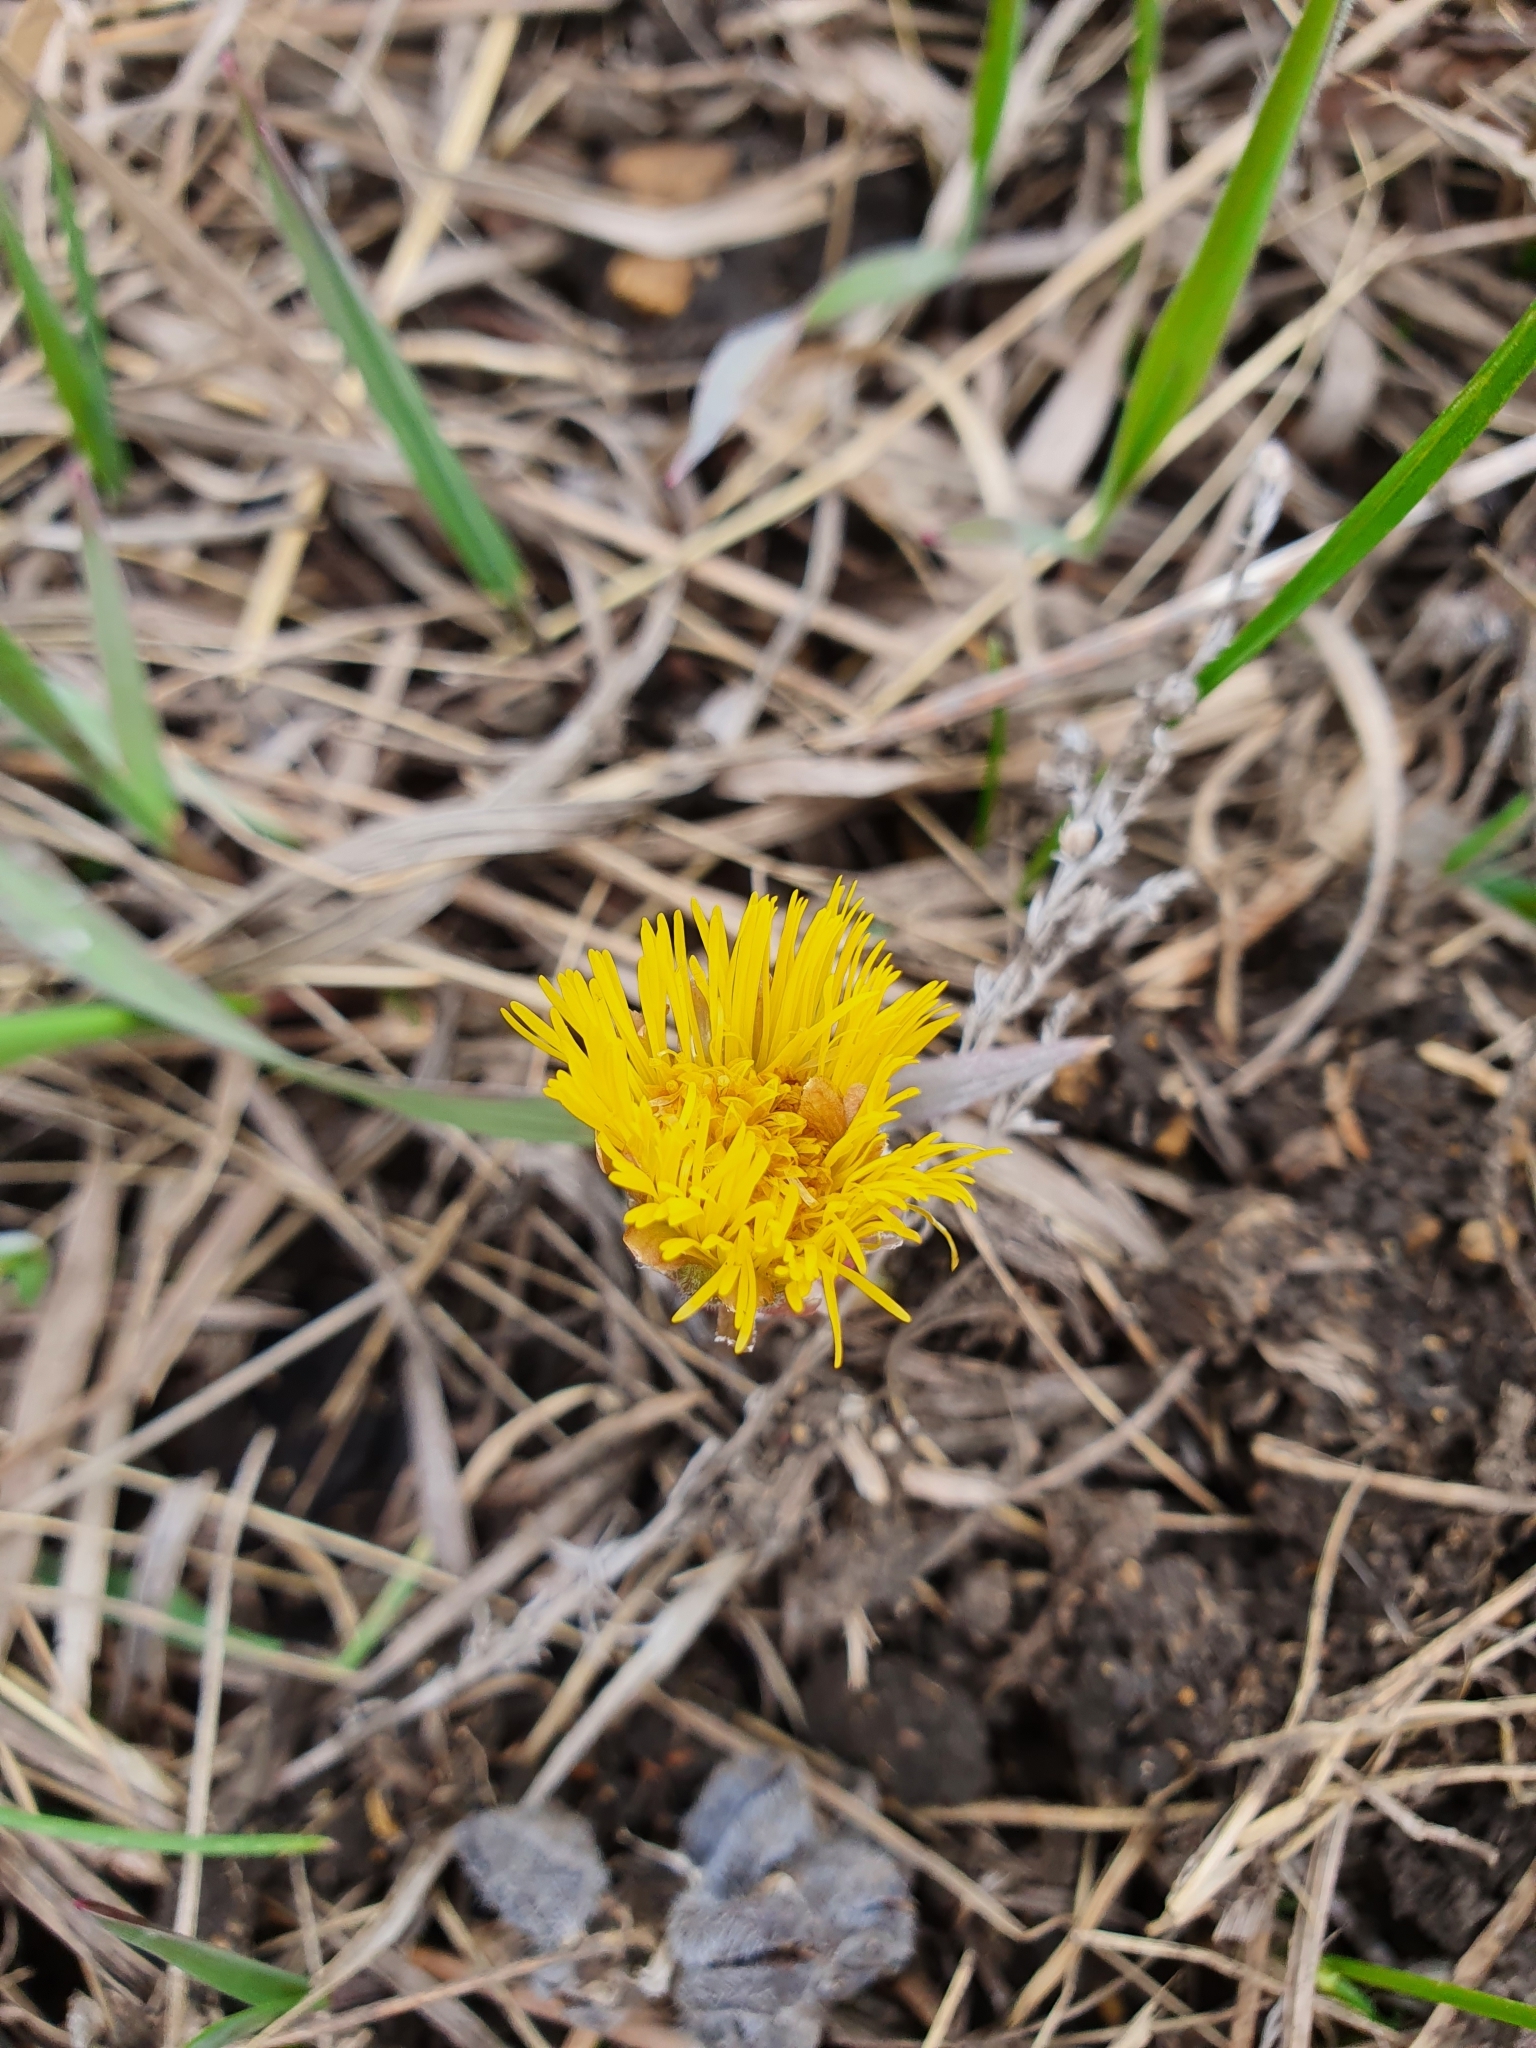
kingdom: Plantae
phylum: Tracheophyta
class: Magnoliopsida
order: Asterales
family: Asteraceae
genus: Tussilago
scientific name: Tussilago farfara
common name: Coltsfoot
